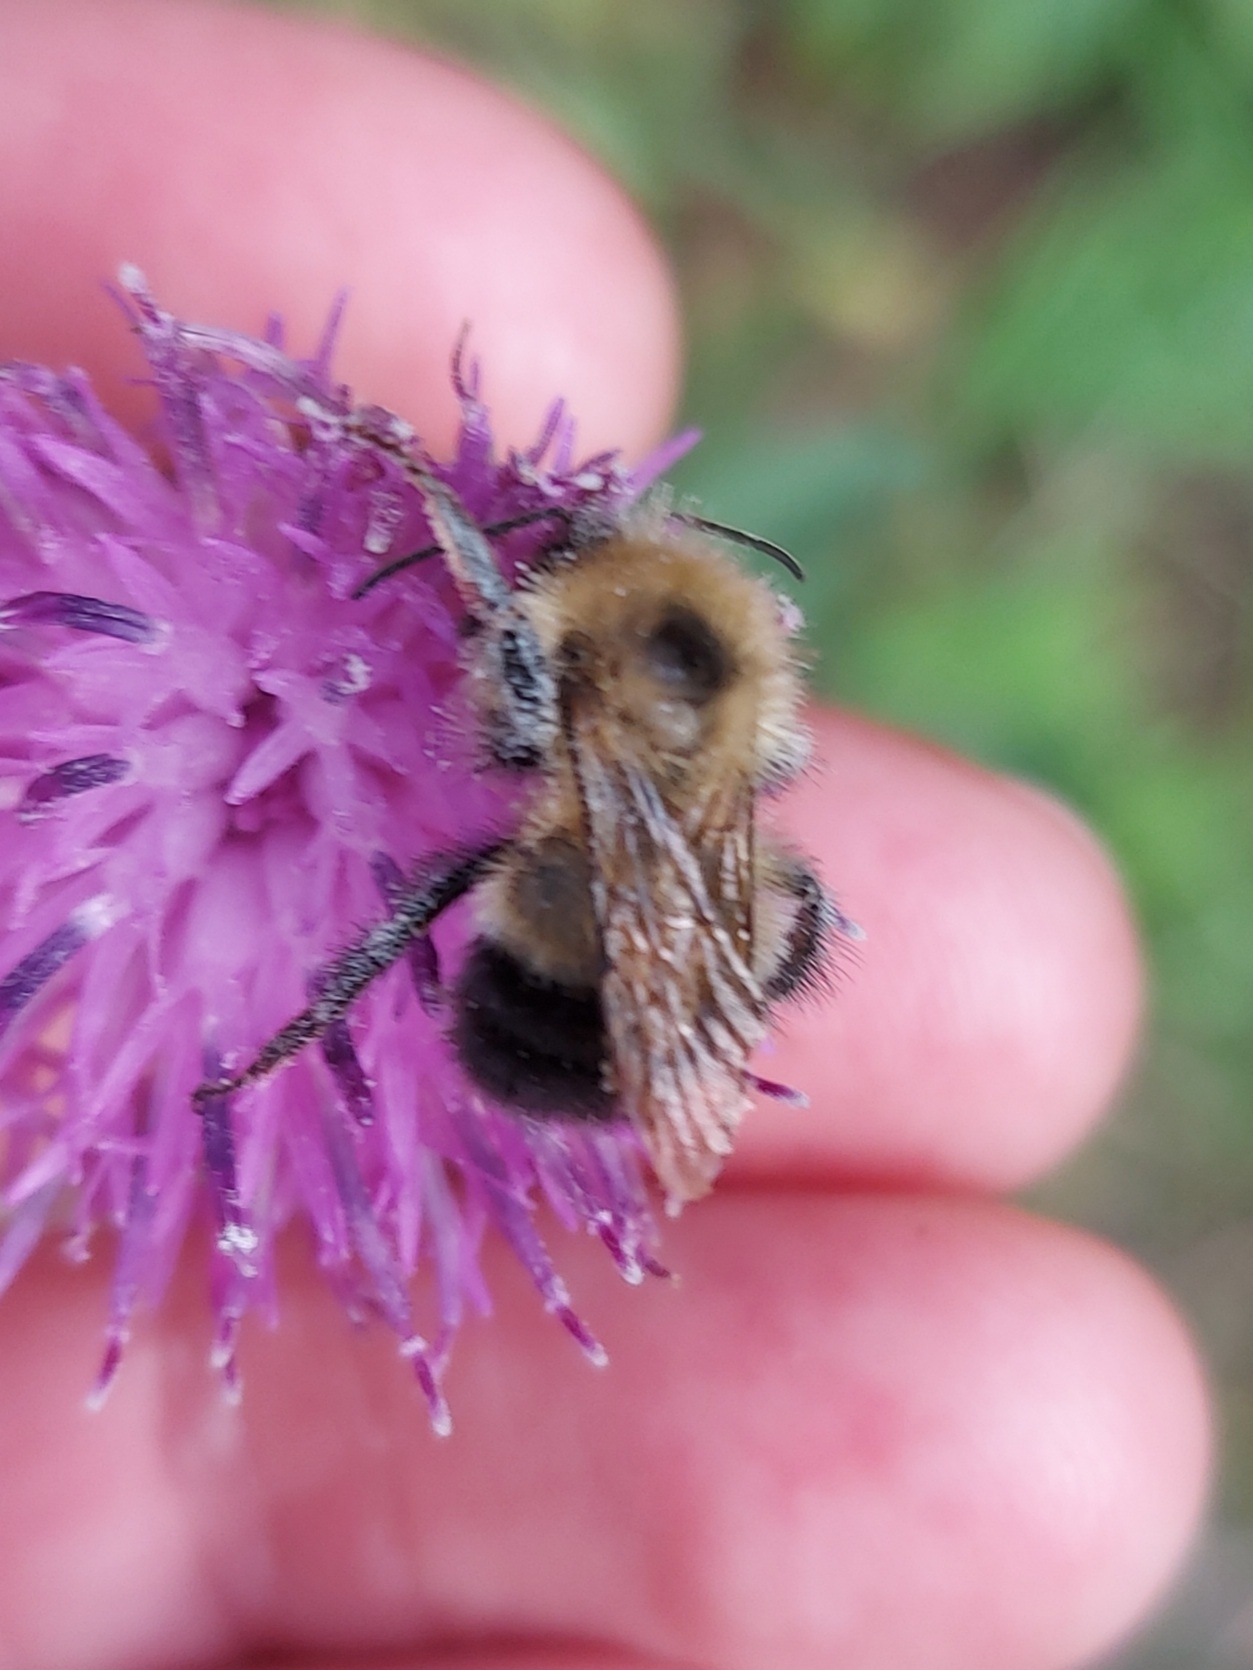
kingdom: Animalia
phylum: Arthropoda
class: Insecta
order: Hymenoptera
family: Apidae
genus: Pyrobombus
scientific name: Pyrobombus
